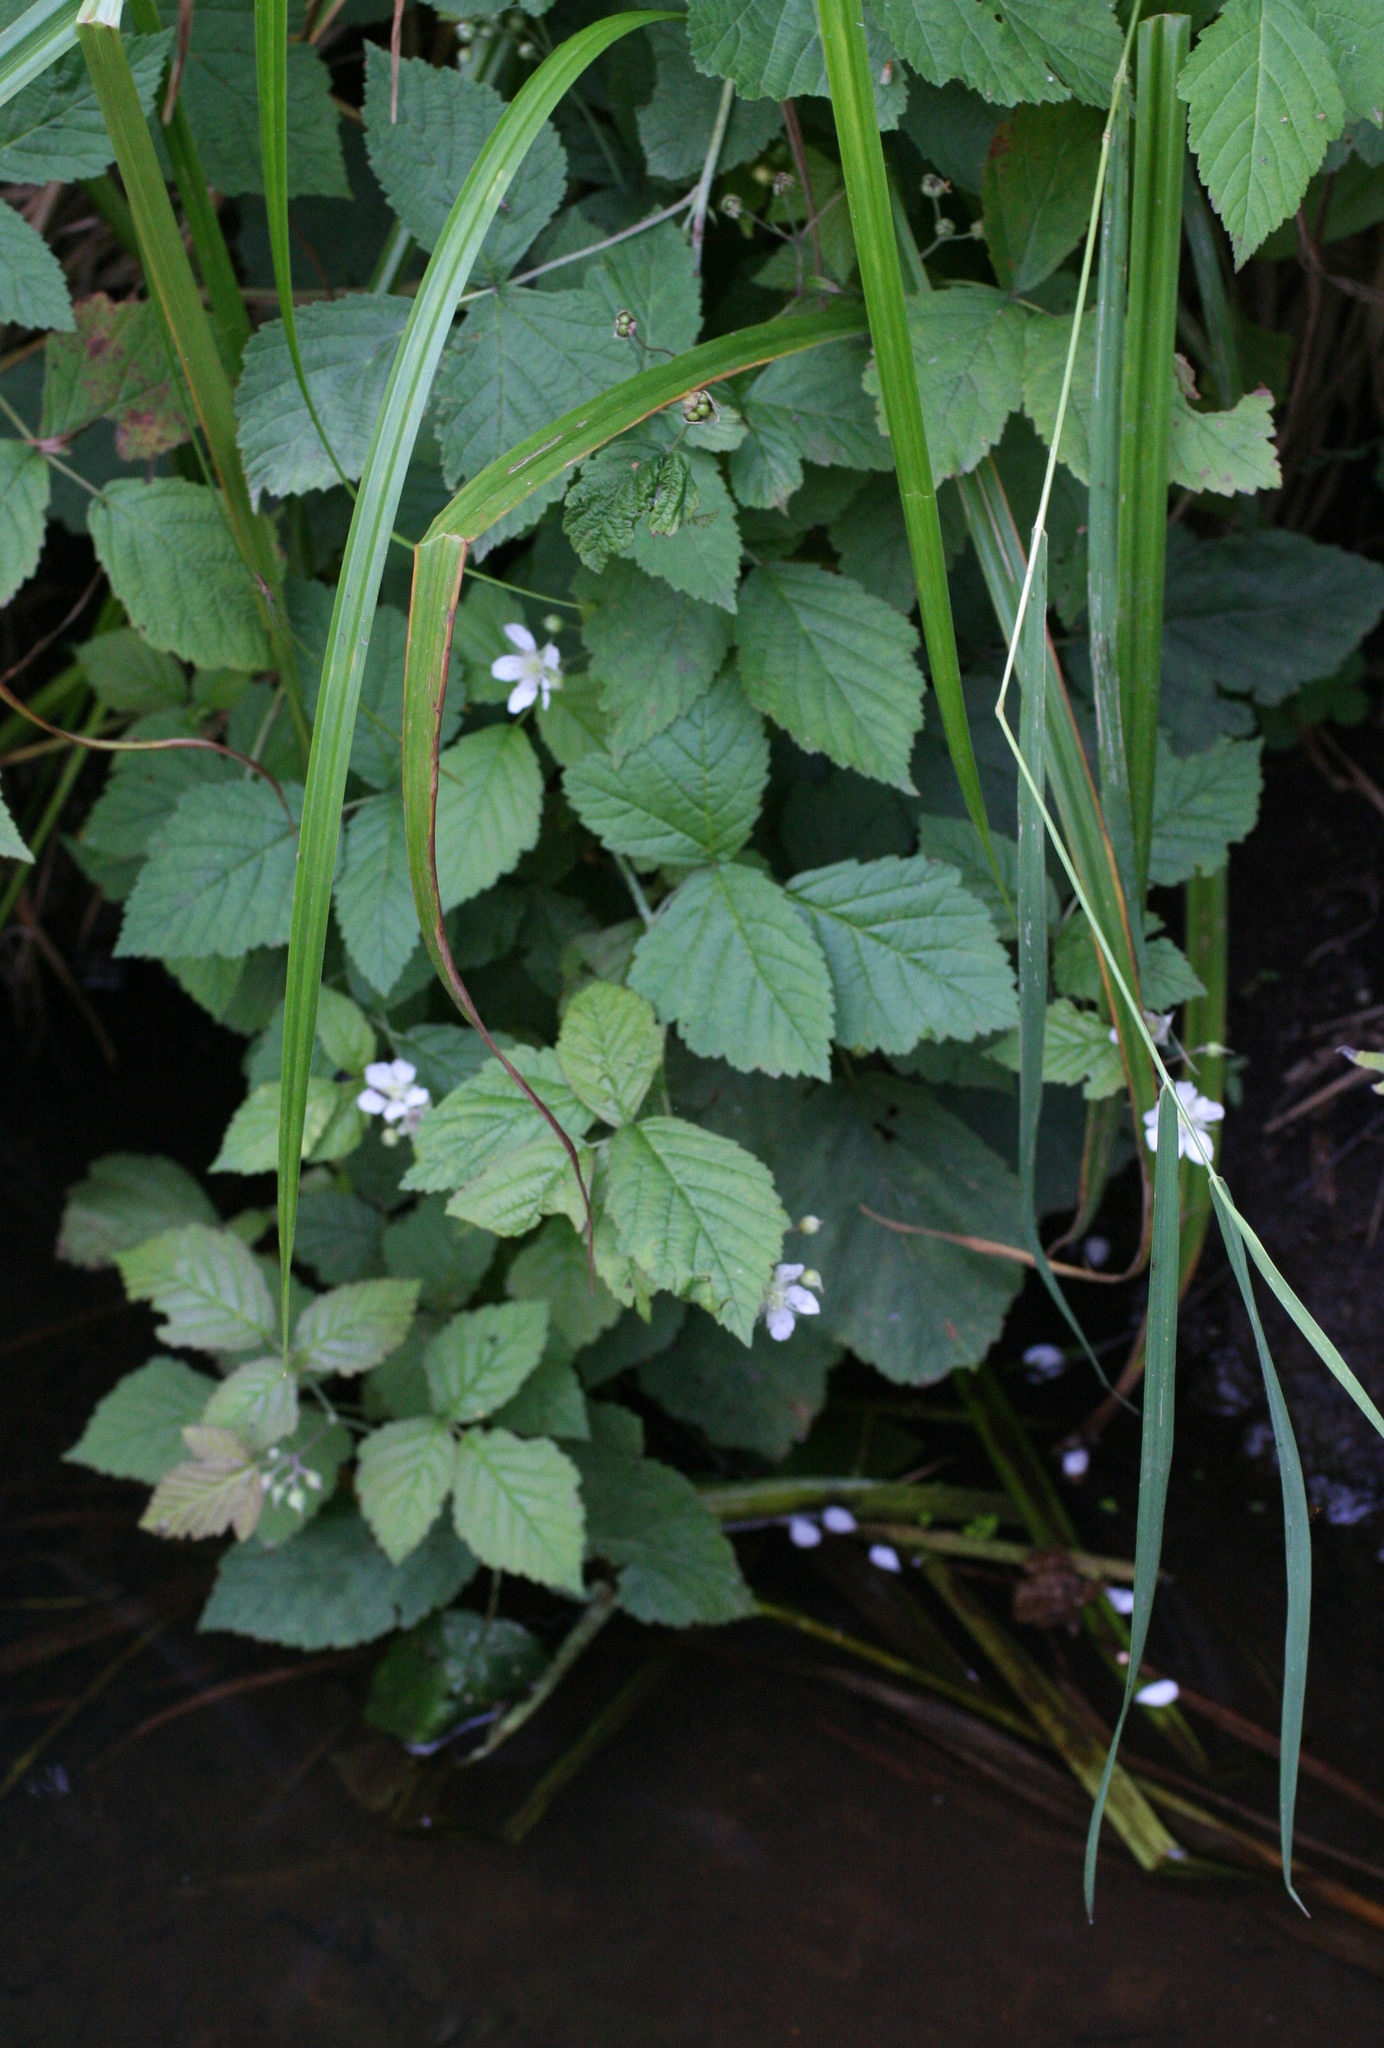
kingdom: Plantae
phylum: Tracheophyta
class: Magnoliopsida
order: Rosales
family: Rosaceae
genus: Rubus
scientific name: Rubus caesius
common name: Dewberry
